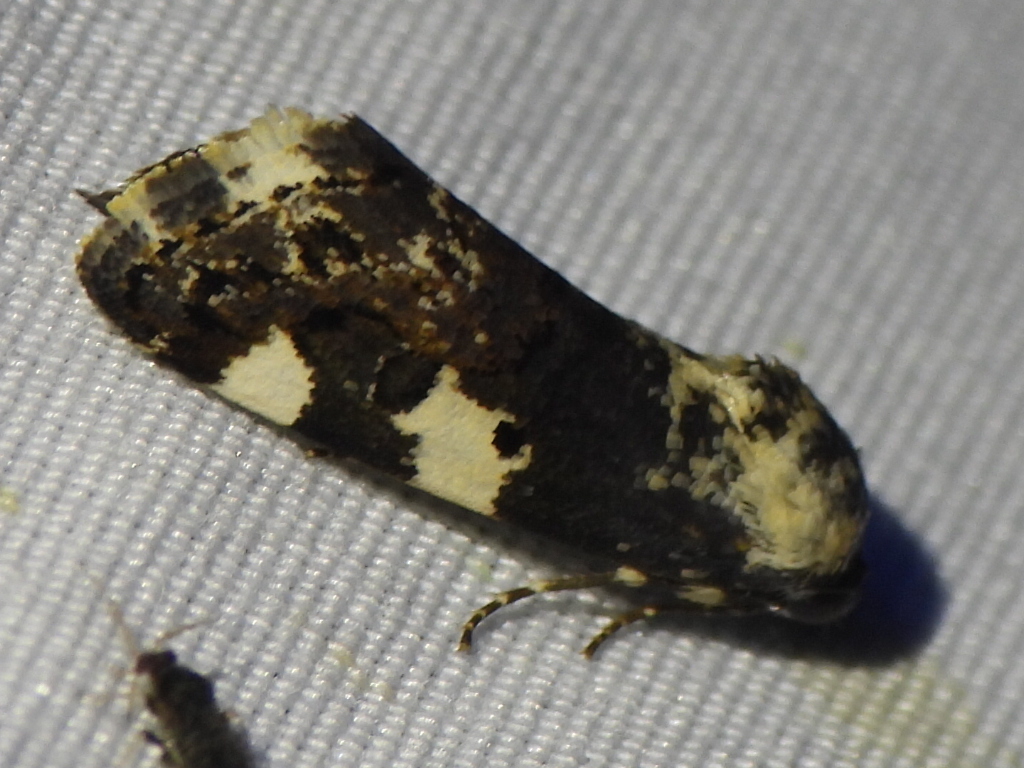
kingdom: Animalia
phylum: Arthropoda
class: Insecta
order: Lepidoptera
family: Noctuidae
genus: Acontia
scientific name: Acontia aprica
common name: Nun
